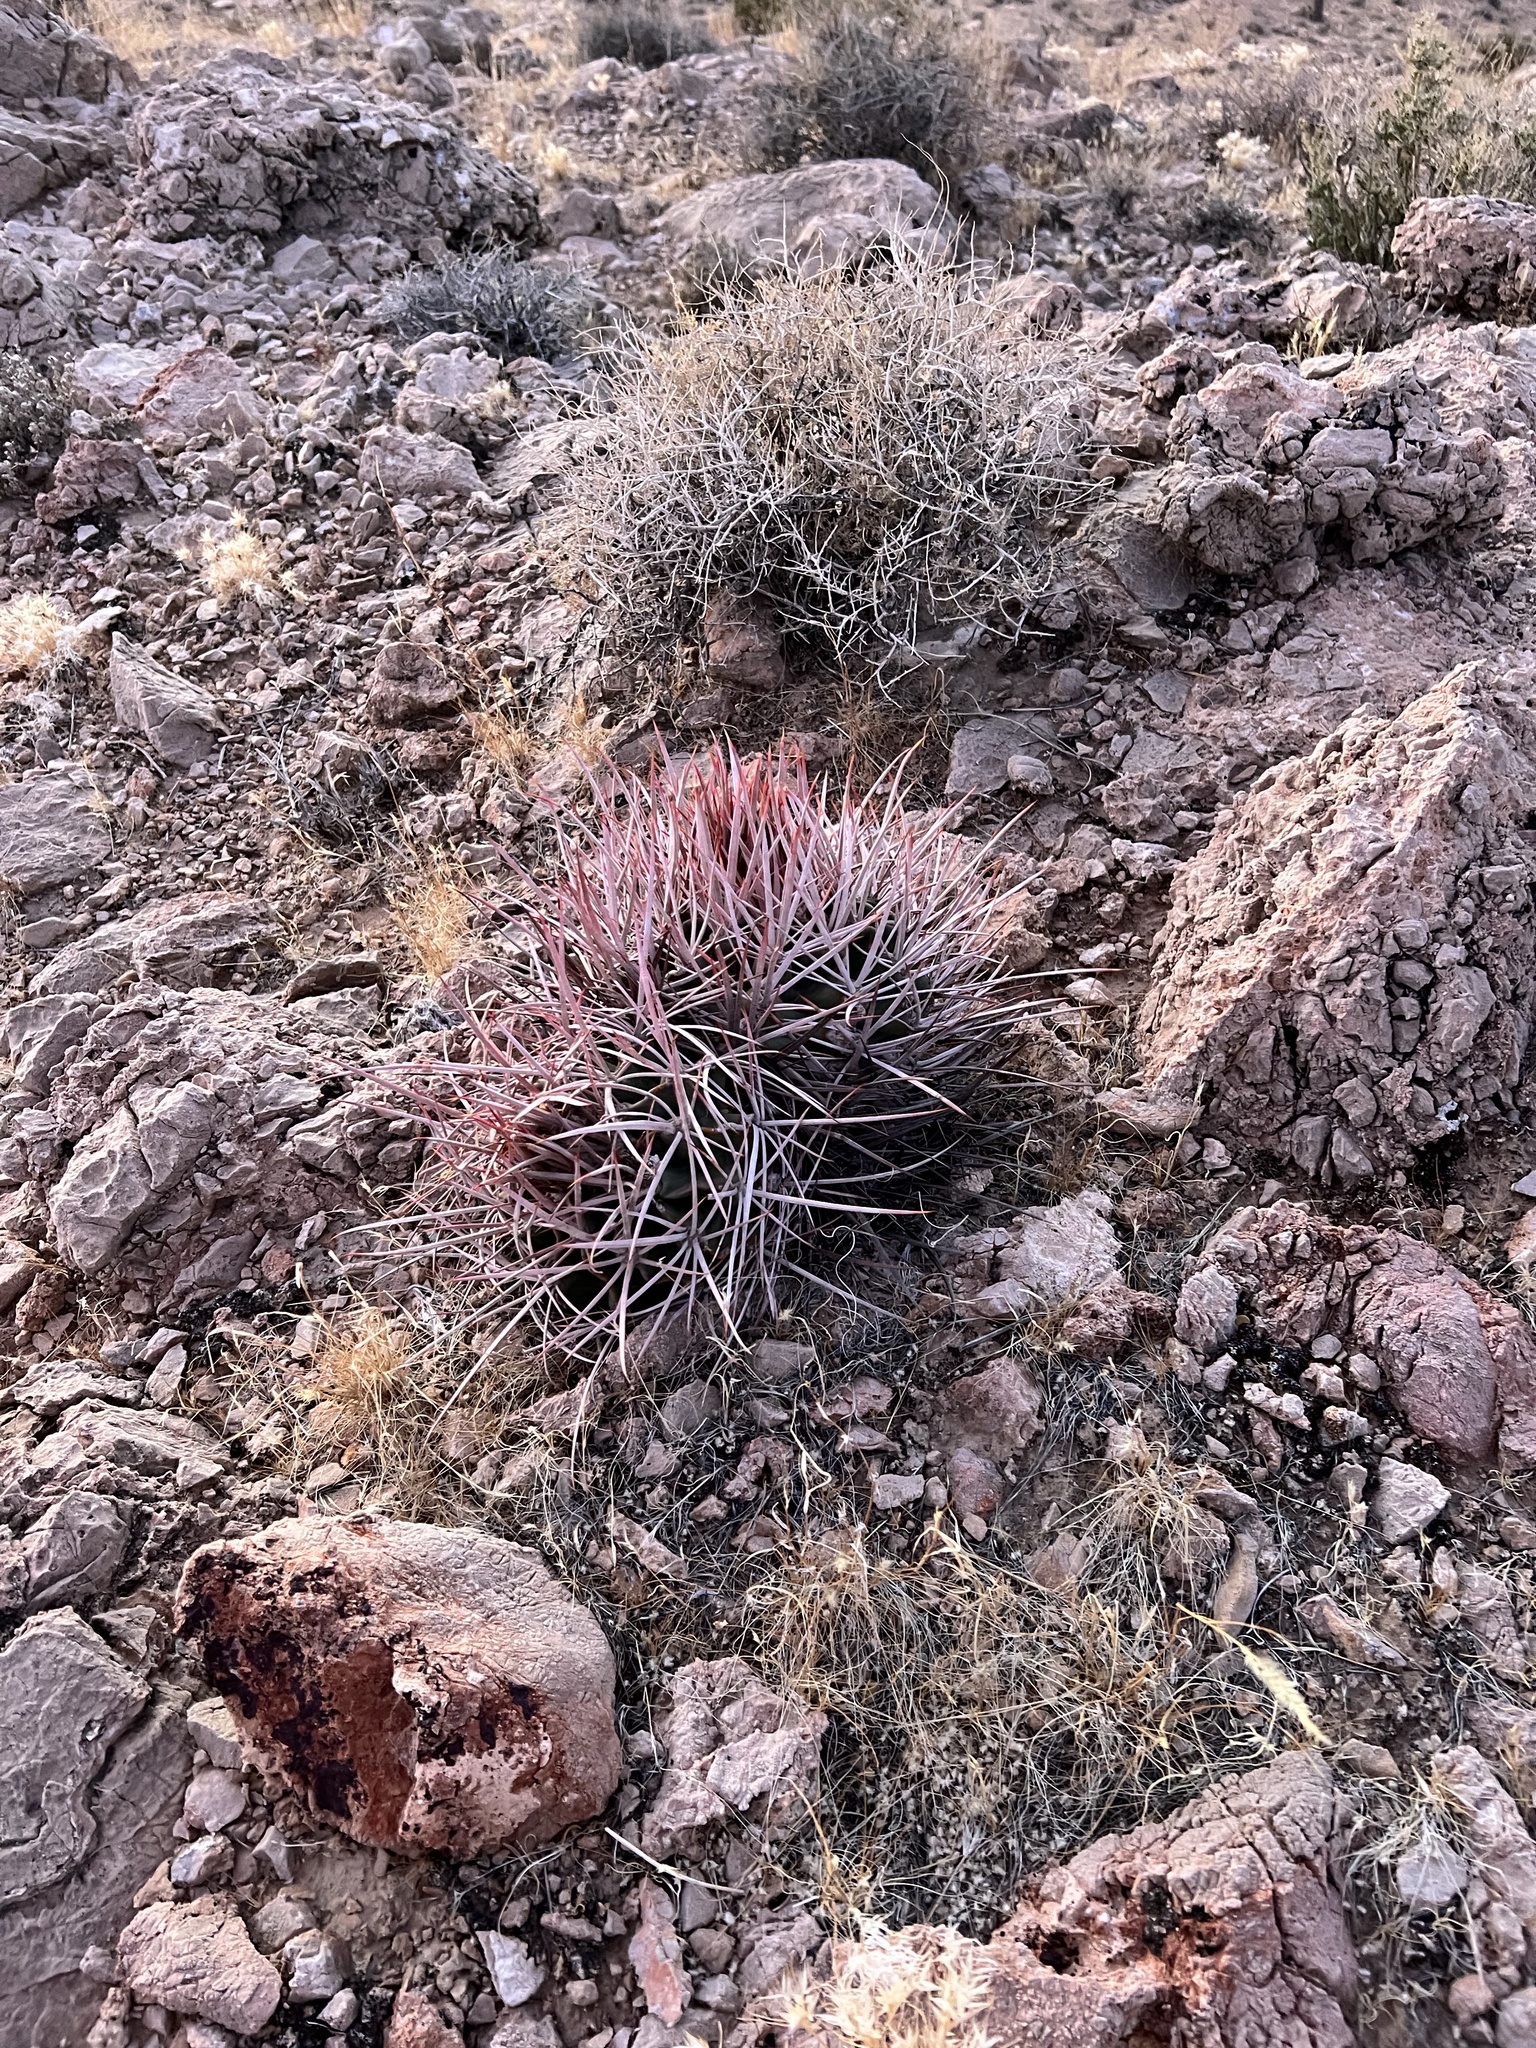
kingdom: Plantae
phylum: Tracheophyta
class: Magnoliopsida
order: Caryophyllales
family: Cactaceae
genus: Echinocactus
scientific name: Echinocactus polycephalus
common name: Cottontop cactus
